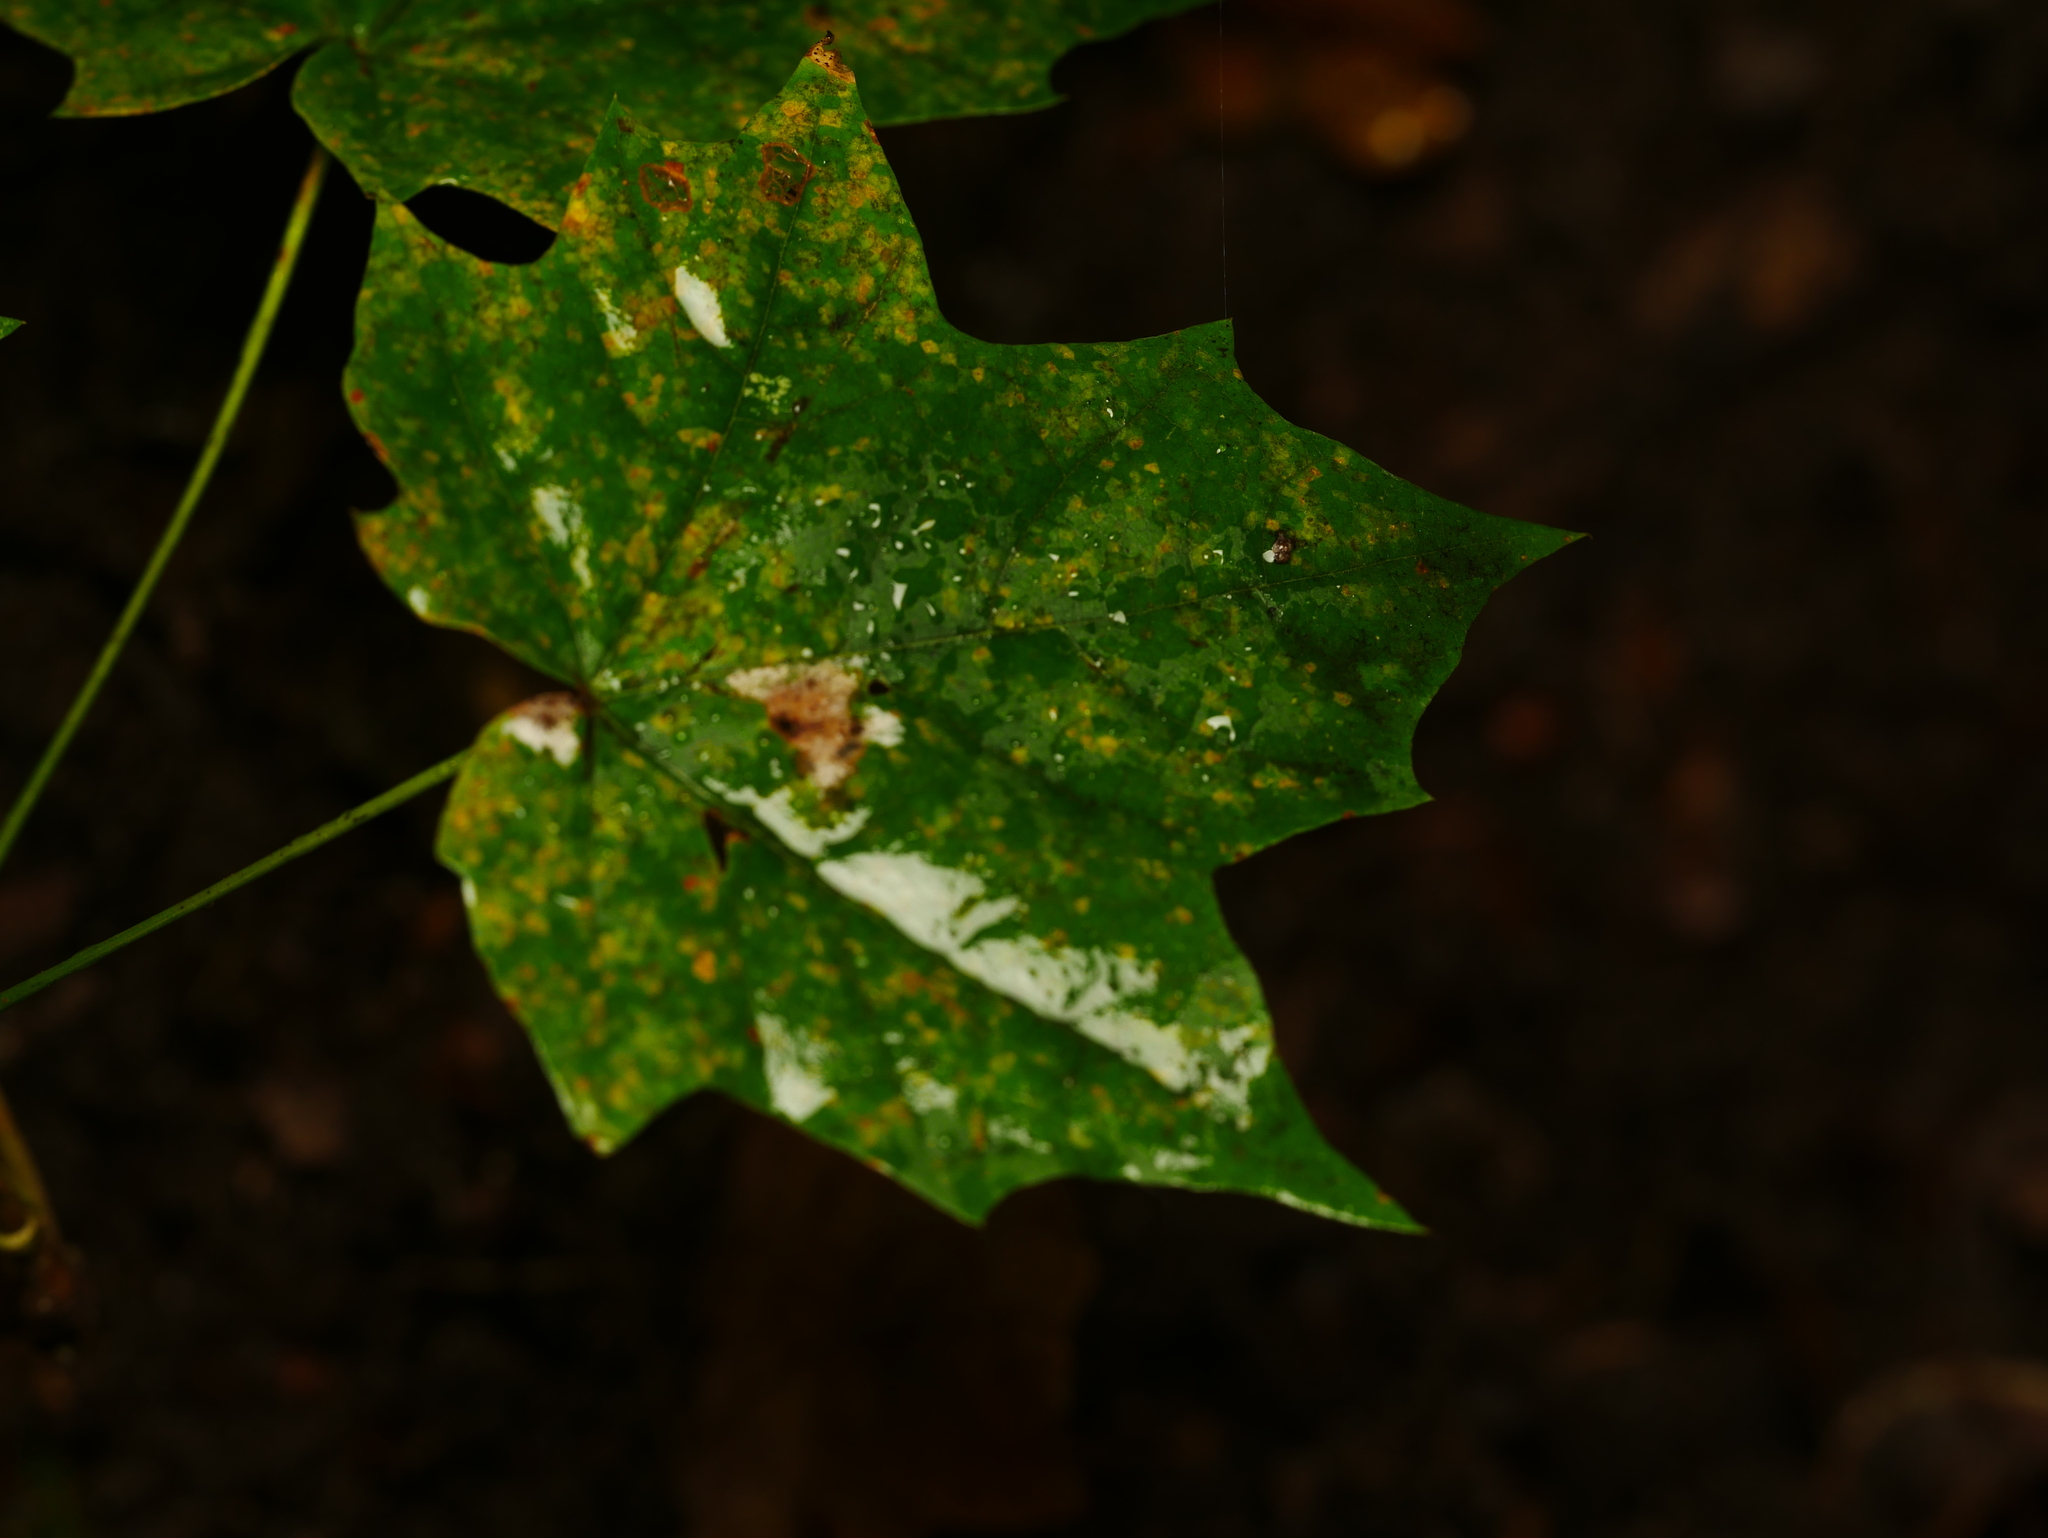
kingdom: Plantae
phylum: Tracheophyta
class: Magnoliopsida
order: Sapindales
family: Sapindaceae
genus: Acer
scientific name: Acer platanoides
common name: Norway maple
